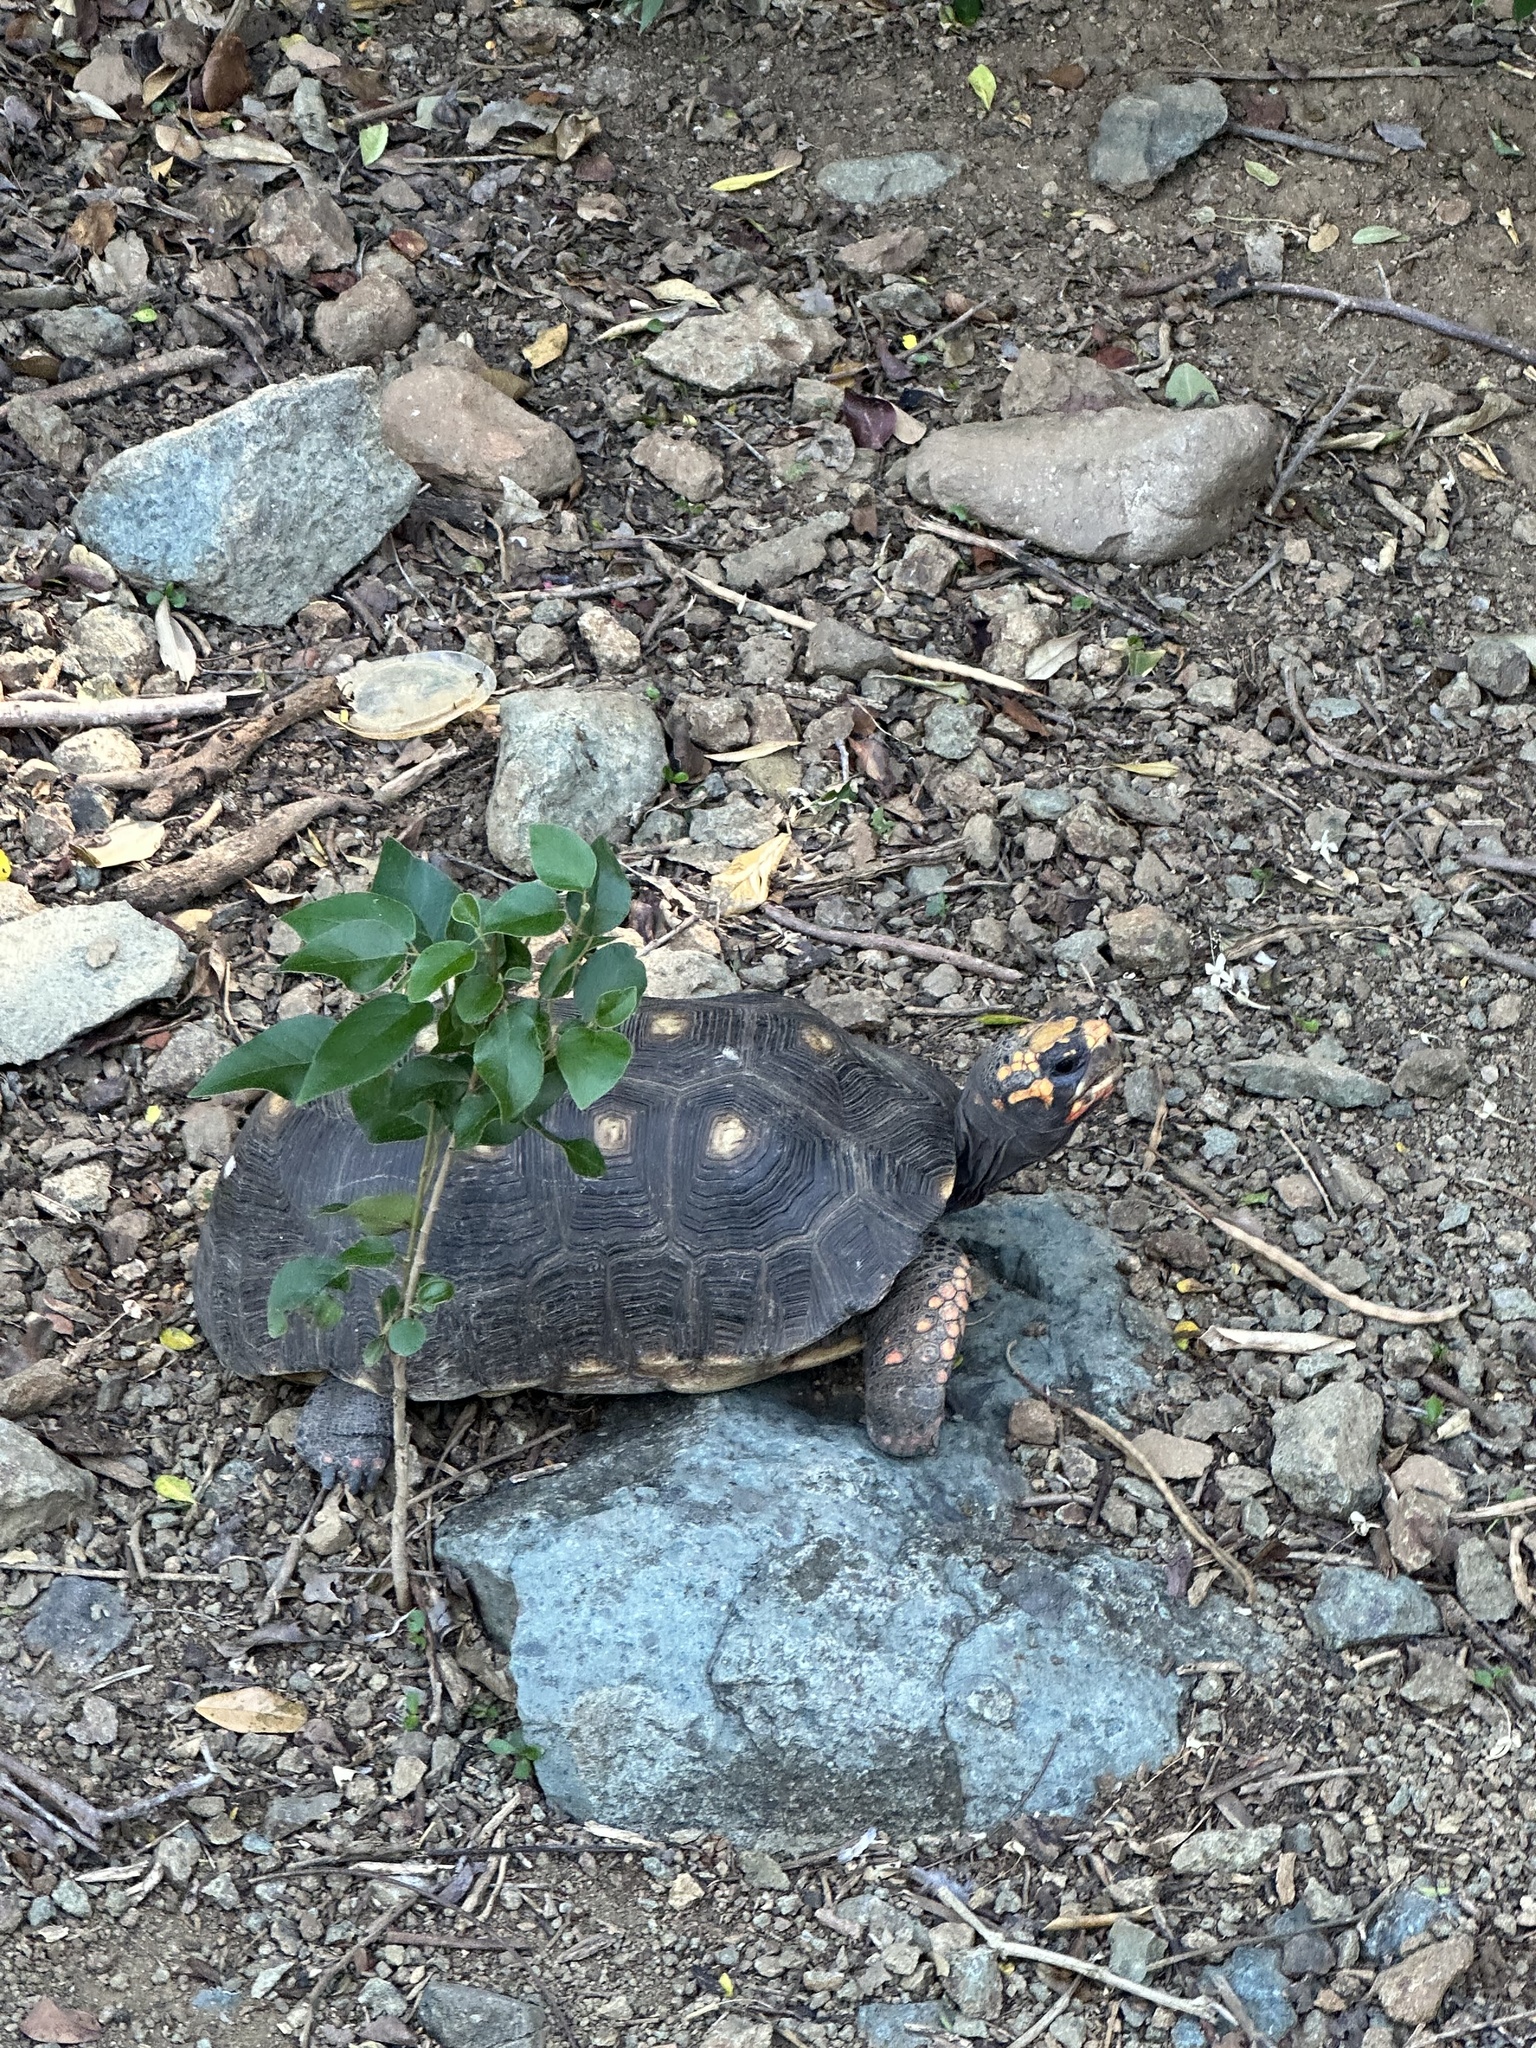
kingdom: Animalia
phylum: Chordata
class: Testudines
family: Testudinidae
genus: Chelonoidis
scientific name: Chelonoidis carbonarius
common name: Red-footed tortoise
